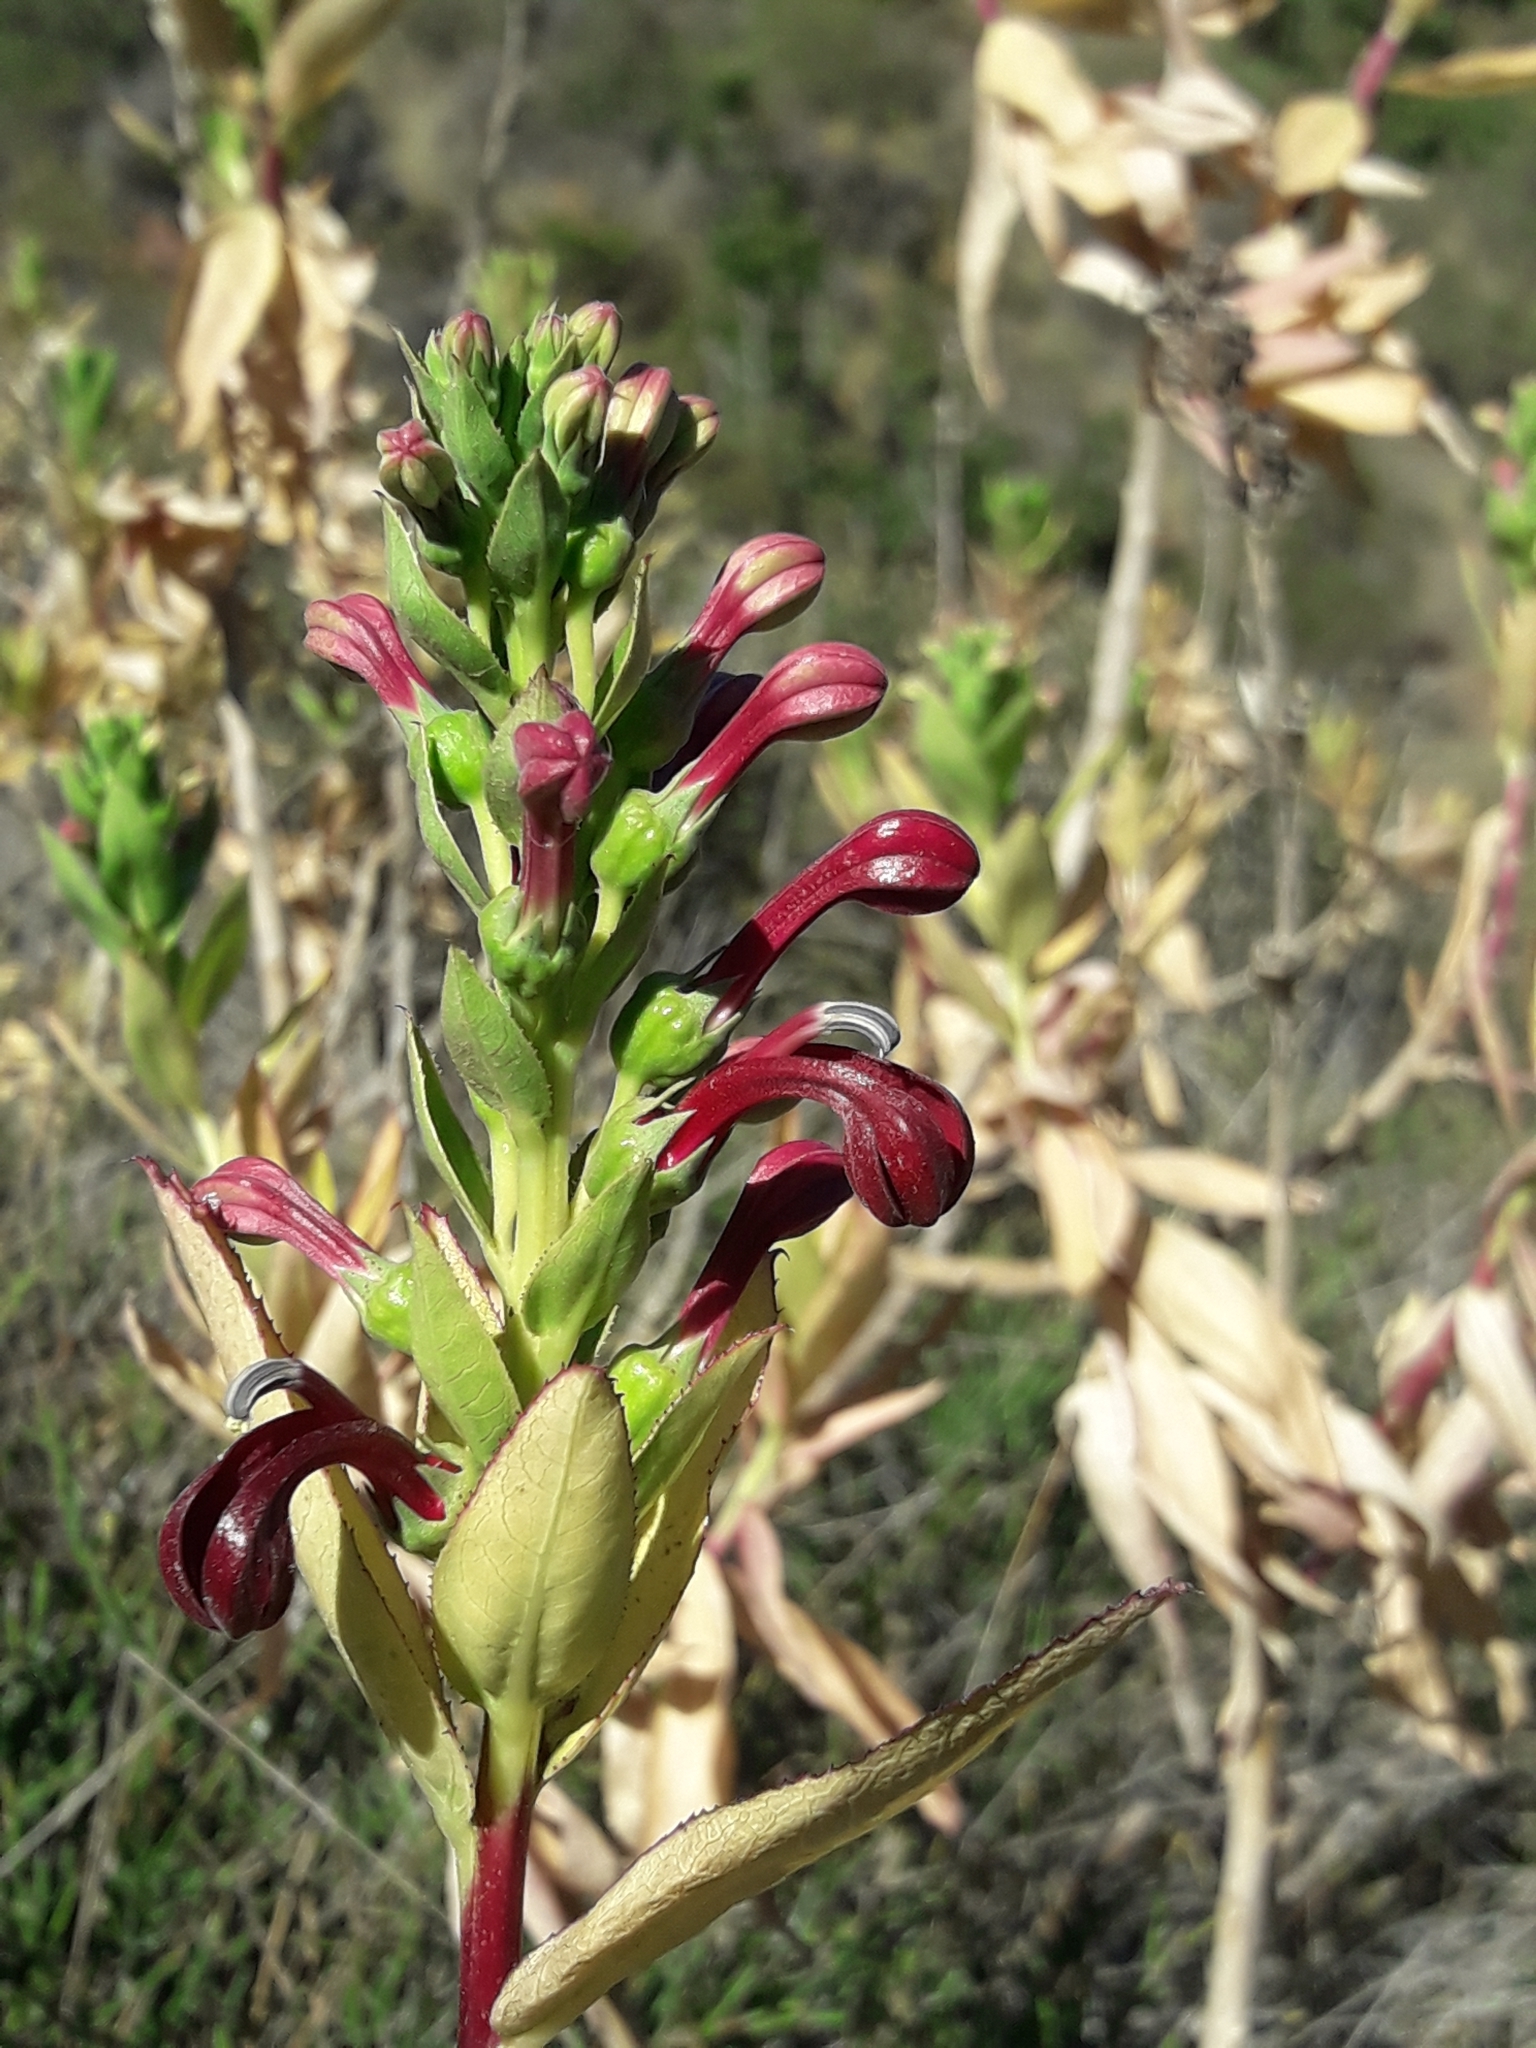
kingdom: Plantae
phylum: Tracheophyta
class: Magnoliopsida
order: Asterales
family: Campanulaceae
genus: Lobelia
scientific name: Lobelia polyphylla
